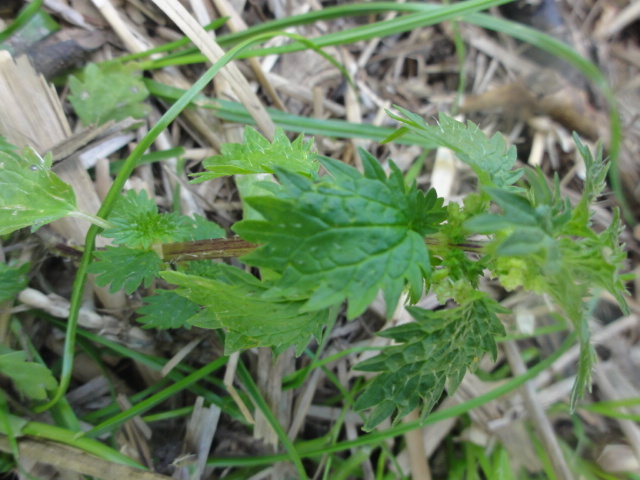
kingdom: Plantae
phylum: Tracheophyta
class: Magnoliopsida
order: Rosales
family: Urticaceae
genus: Urtica
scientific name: Urtica urens
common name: Dwarf nettle
